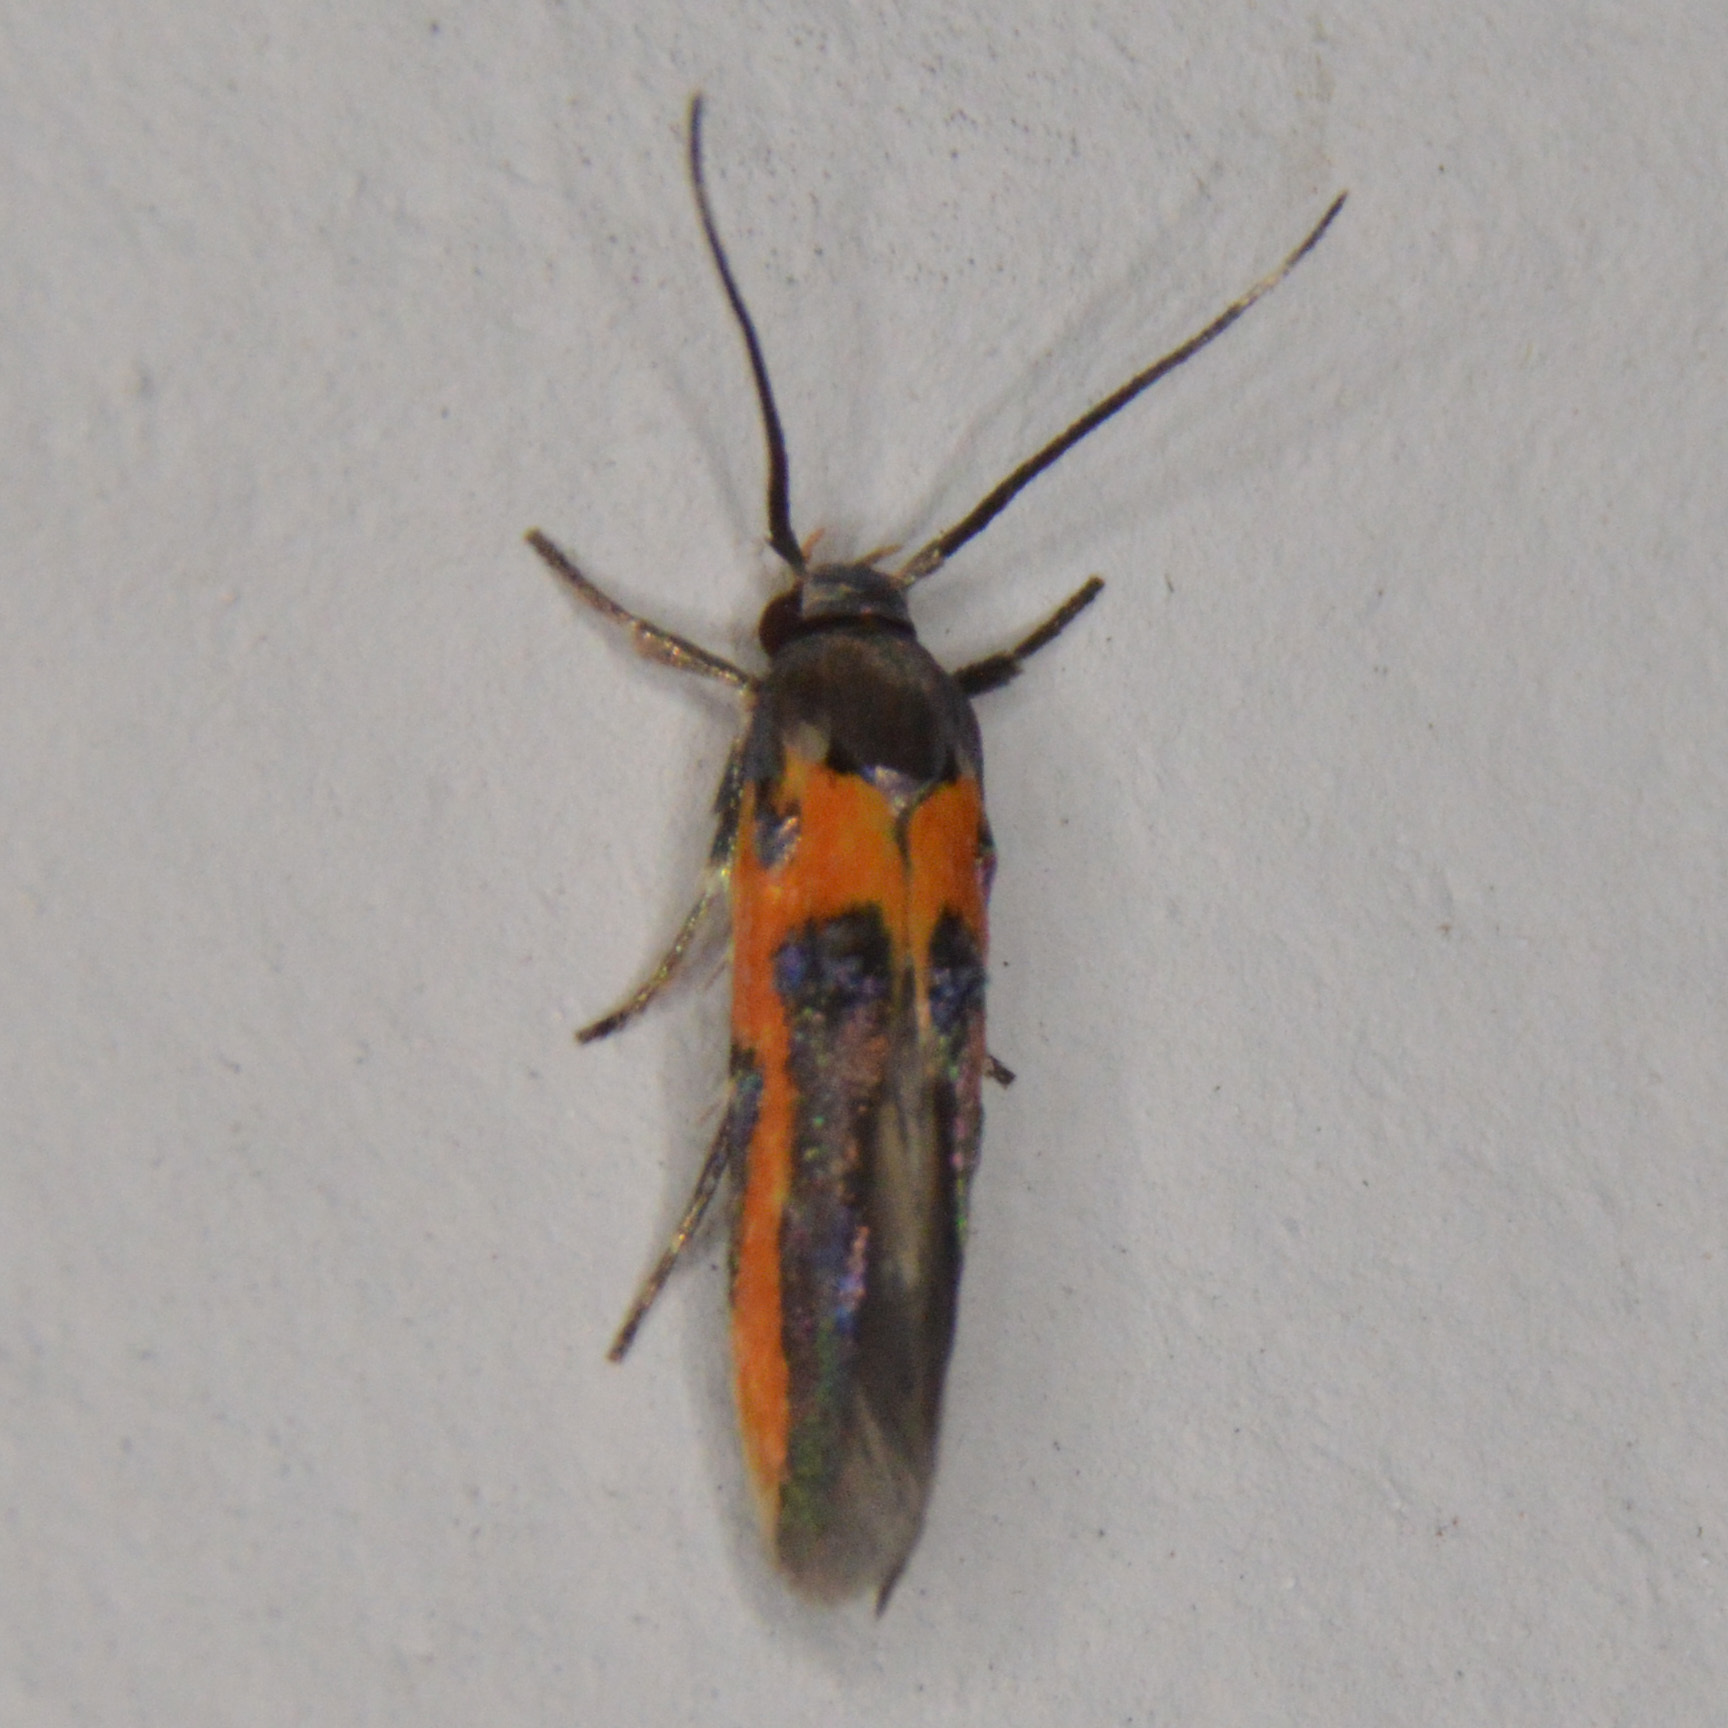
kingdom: Animalia
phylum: Arthropoda
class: Insecta
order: Lepidoptera
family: Cosmopterigidae
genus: Euclemensia
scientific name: Euclemensia bassettella
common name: Kermes scale moth
